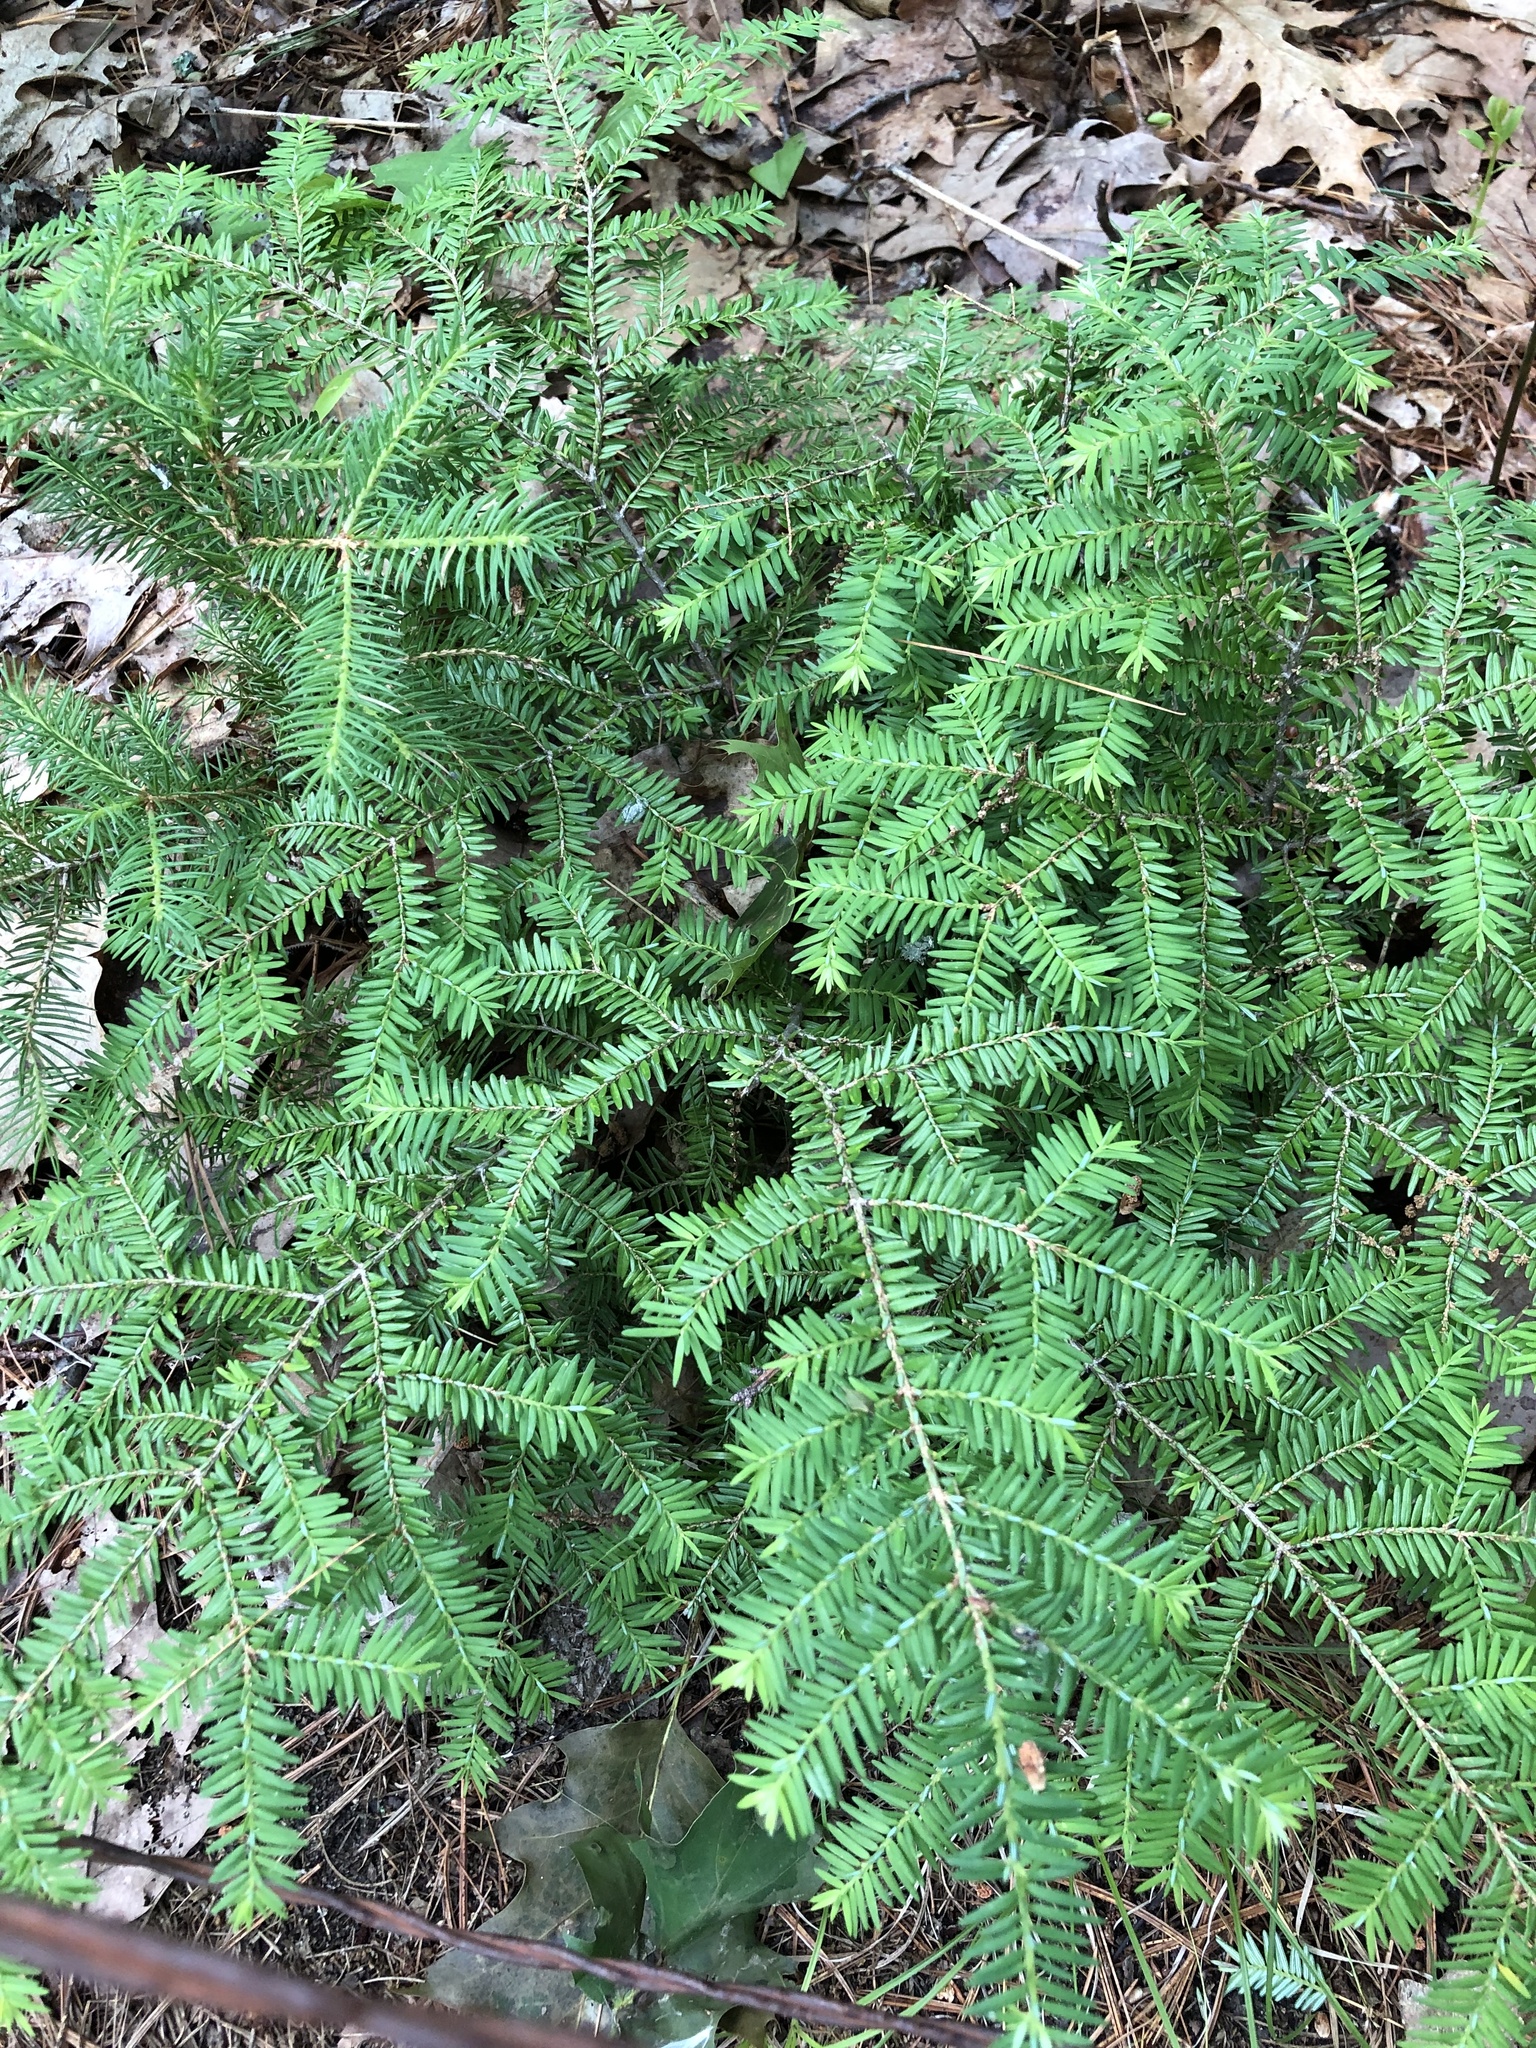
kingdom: Plantae
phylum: Tracheophyta
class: Pinopsida
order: Pinales
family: Pinaceae
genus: Tsuga
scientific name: Tsuga canadensis
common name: Eastern hemlock
